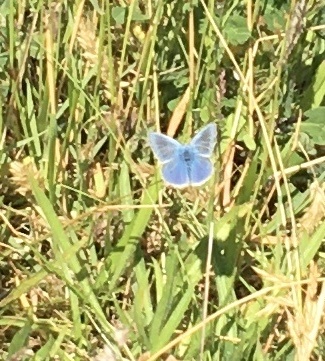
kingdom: Animalia
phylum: Arthropoda
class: Insecta
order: Lepidoptera
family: Lycaenidae
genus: Polyommatus
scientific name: Polyommatus icarus
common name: Common blue
